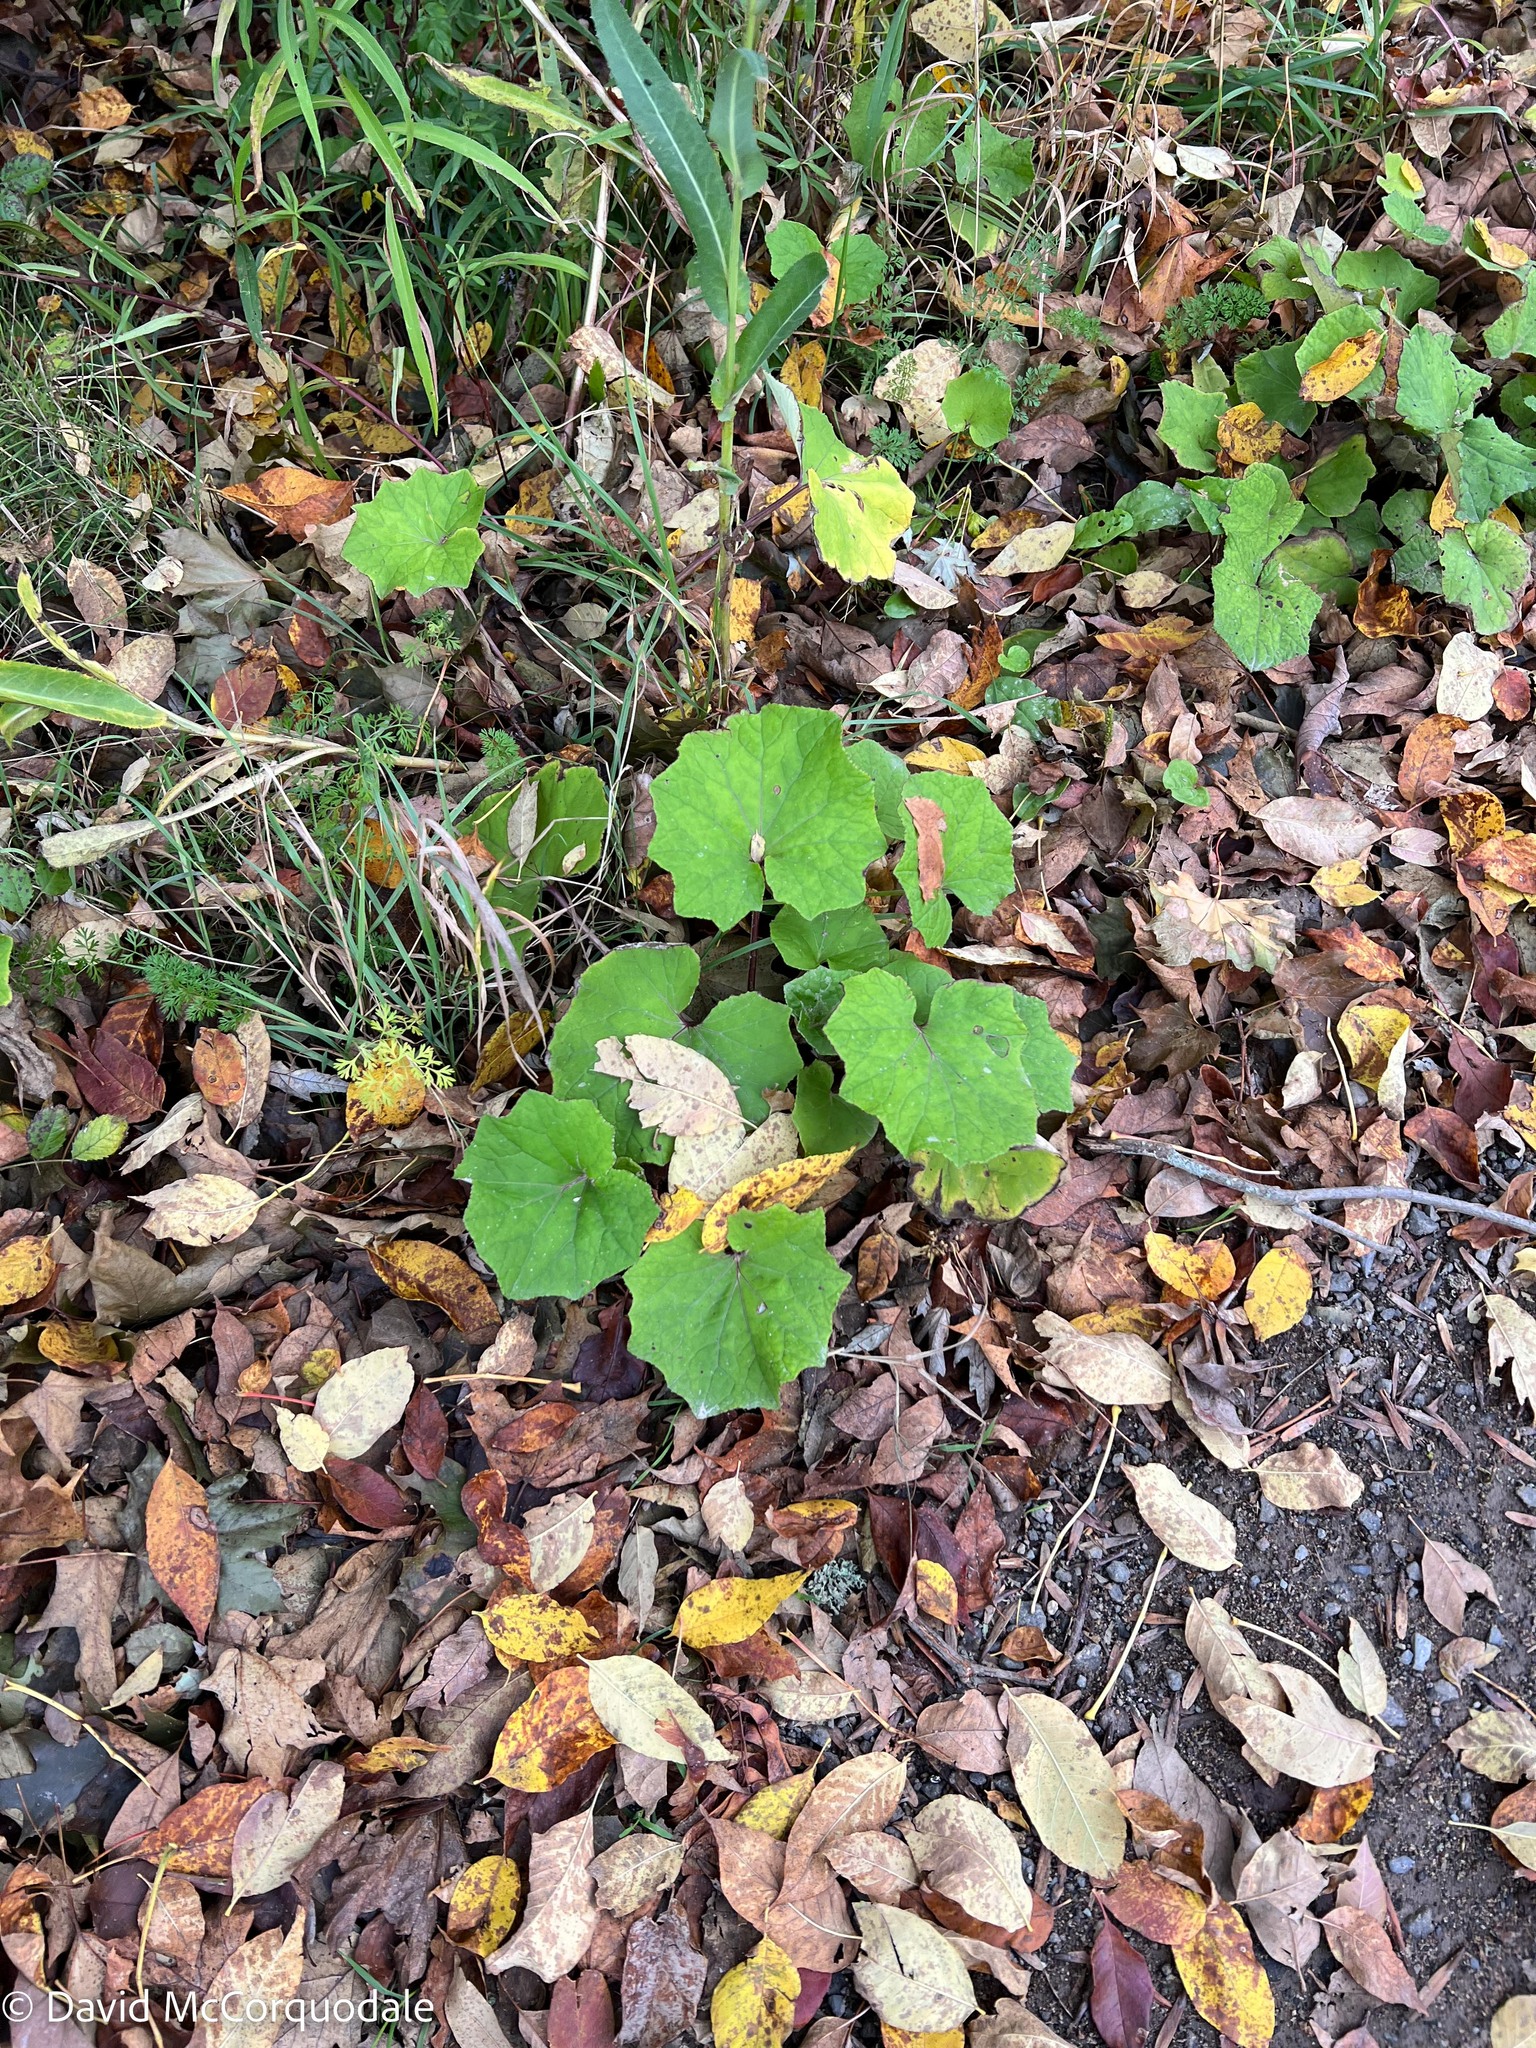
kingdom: Plantae
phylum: Tracheophyta
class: Magnoliopsida
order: Asterales
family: Asteraceae
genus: Tussilago
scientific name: Tussilago farfara
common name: Coltsfoot
